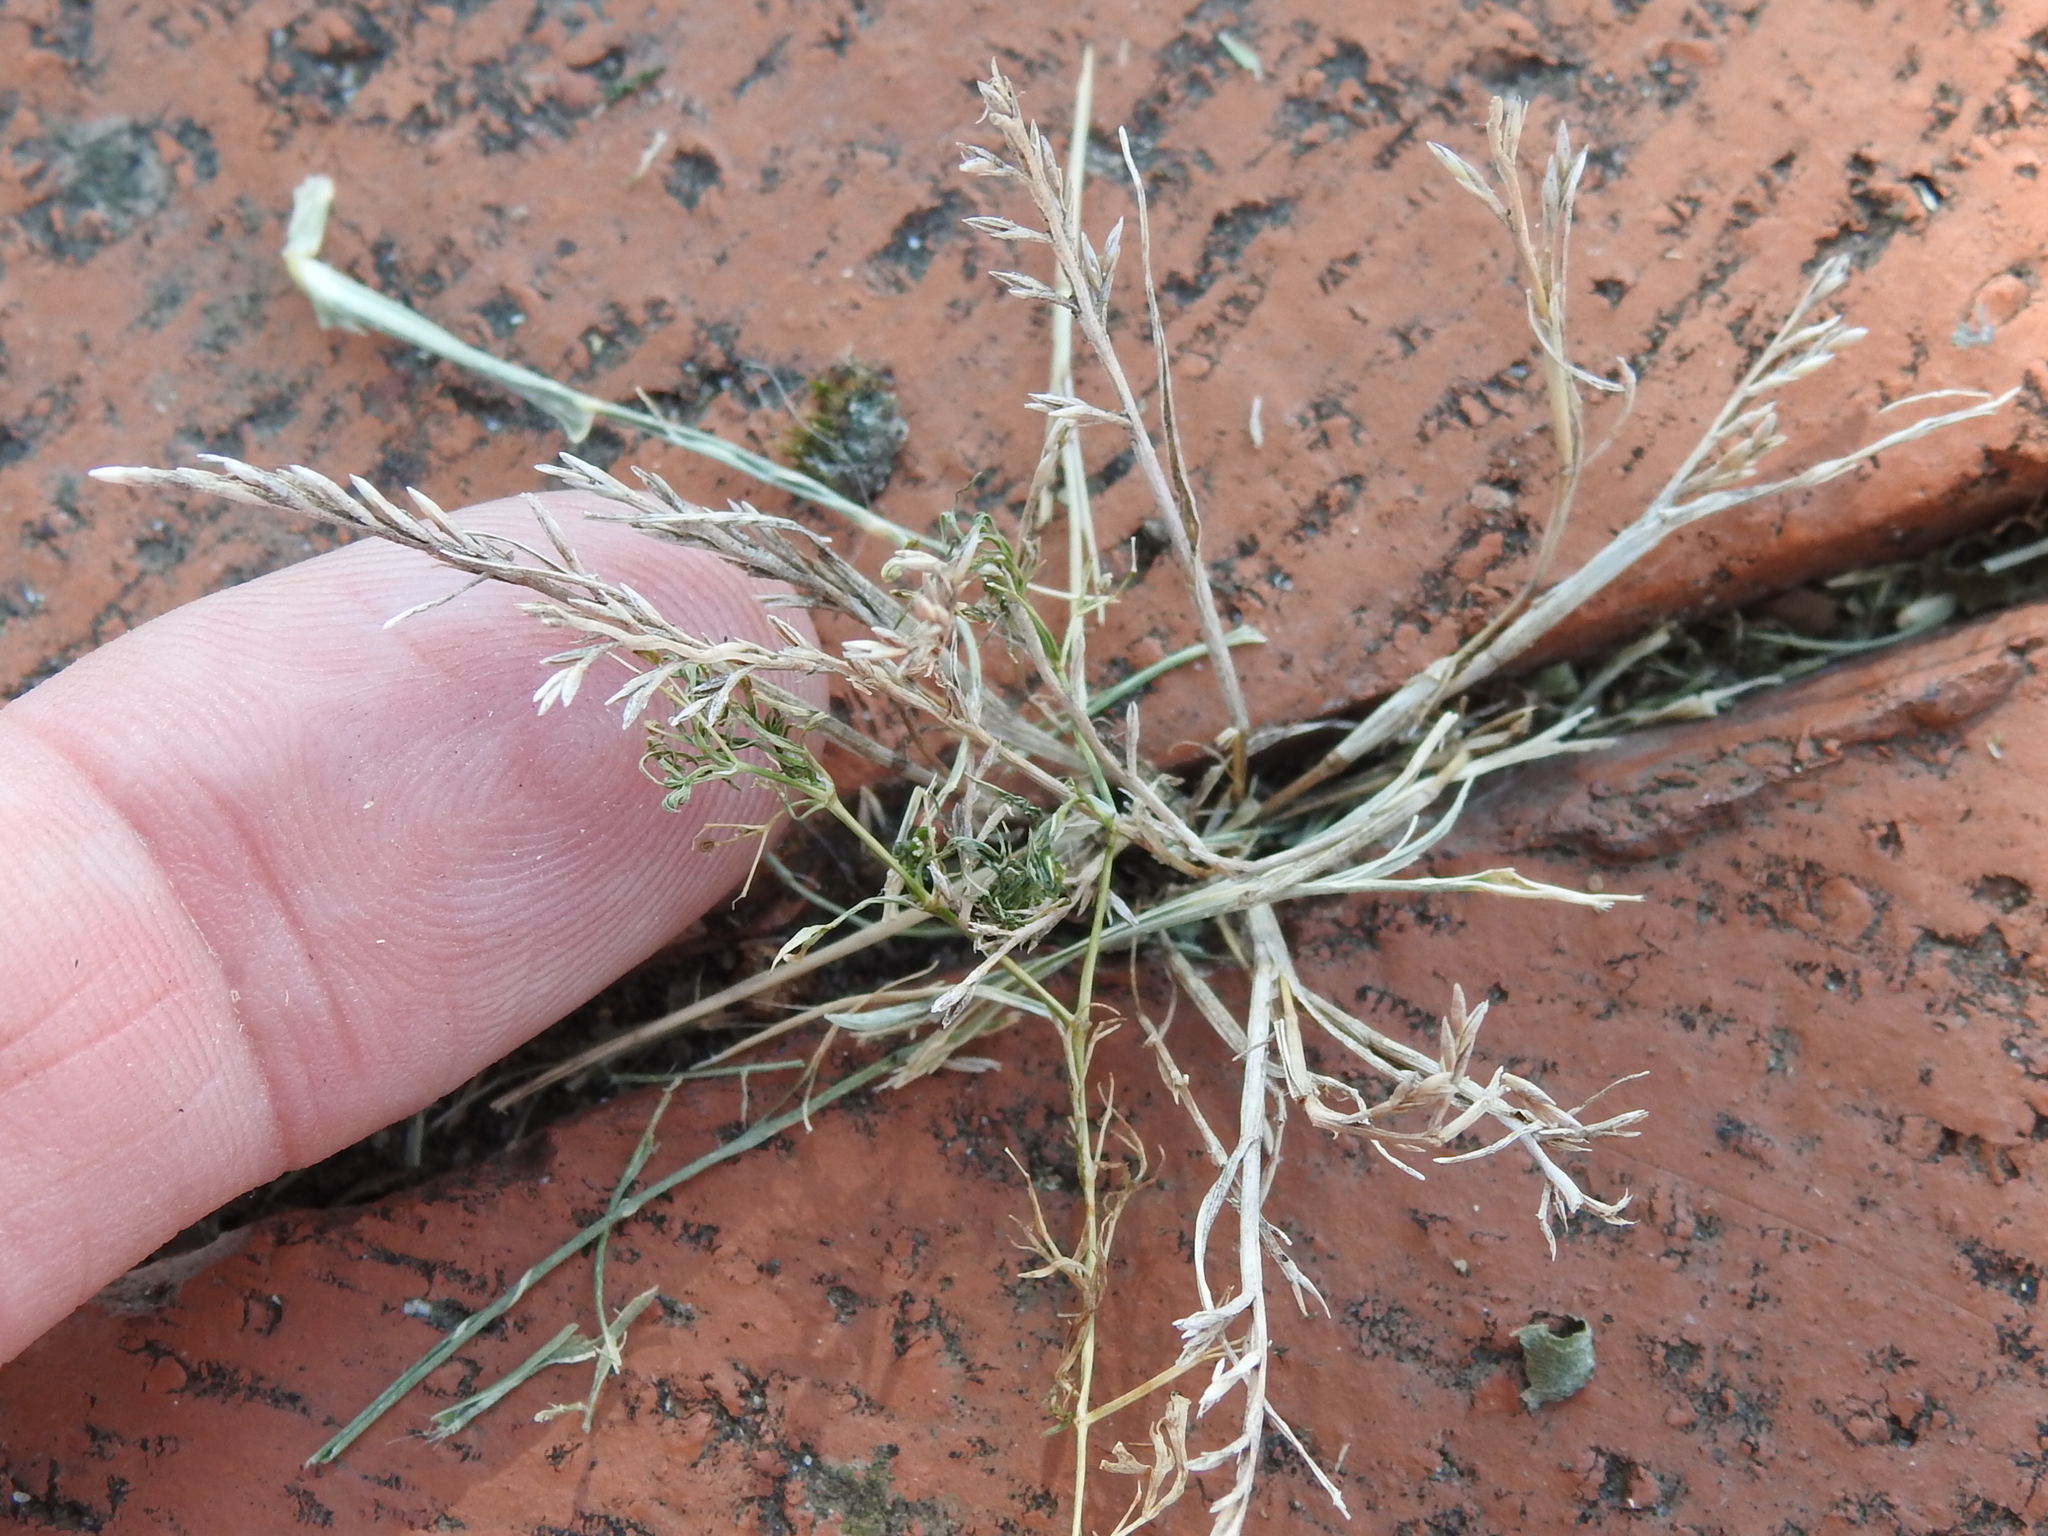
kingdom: Plantae
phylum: Tracheophyta
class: Liliopsida
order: Poales
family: Poaceae
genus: Catapodium
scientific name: Catapodium rigidum
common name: Fern-grass
